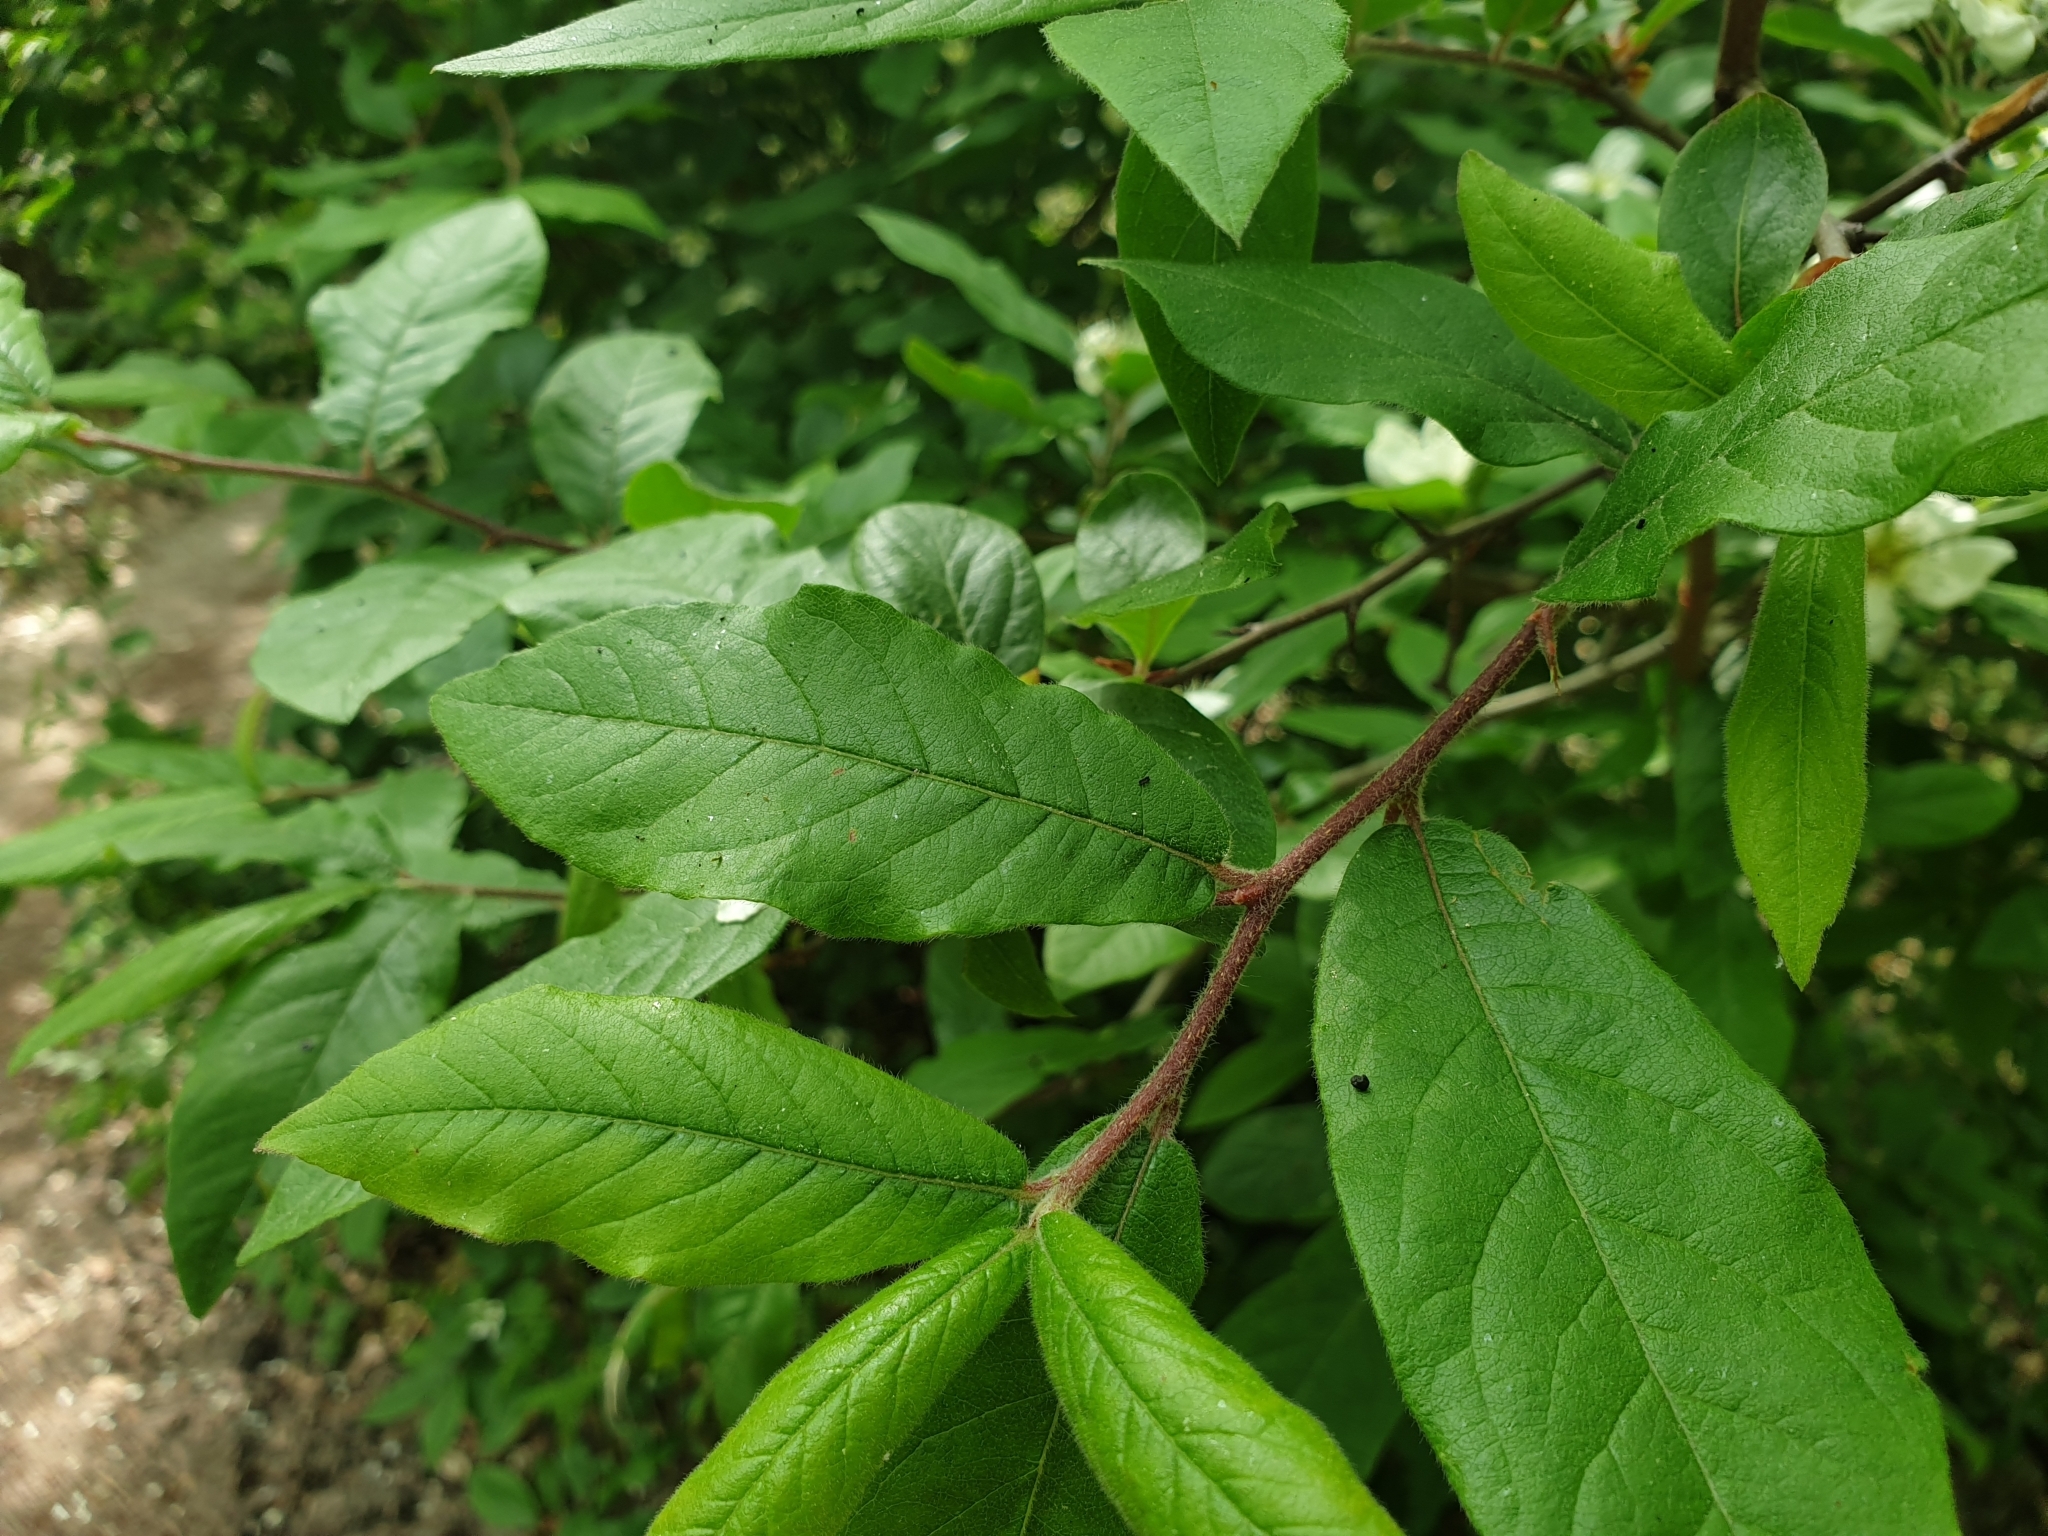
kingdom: Plantae
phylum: Tracheophyta
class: Magnoliopsida
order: Rosales
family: Rosaceae
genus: Mespilus
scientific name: Mespilus germanica
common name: Medlar
